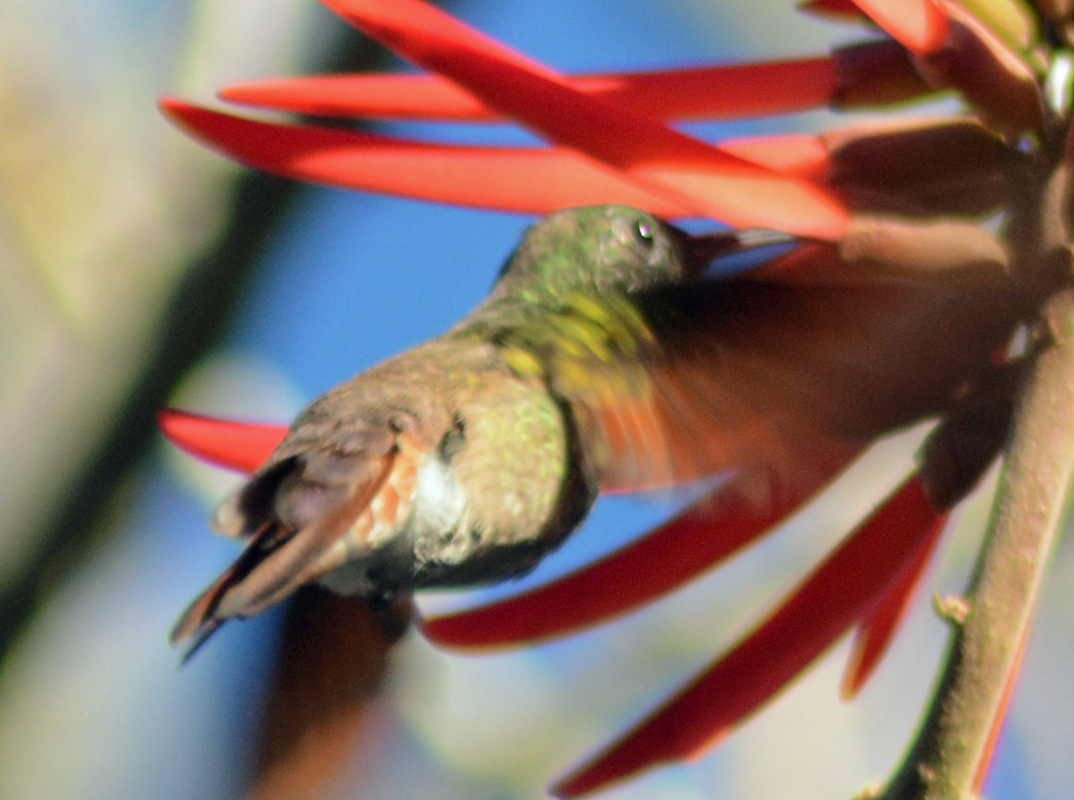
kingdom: Animalia
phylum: Chordata
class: Aves
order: Apodiformes
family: Trochilidae
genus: Saucerottia
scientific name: Saucerottia beryllina
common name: Berylline hummingbird
